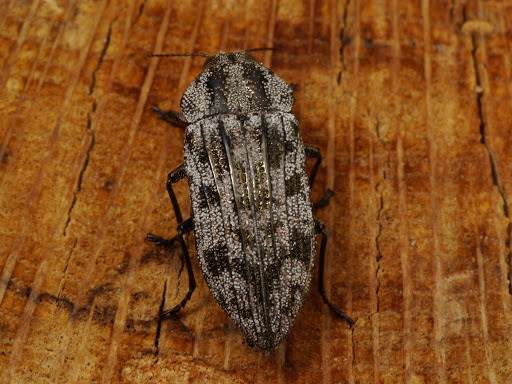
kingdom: Animalia
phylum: Arthropoda
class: Insecta
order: Coleoptera
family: Buprestidae
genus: Polycesta
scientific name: Polycesta elata
